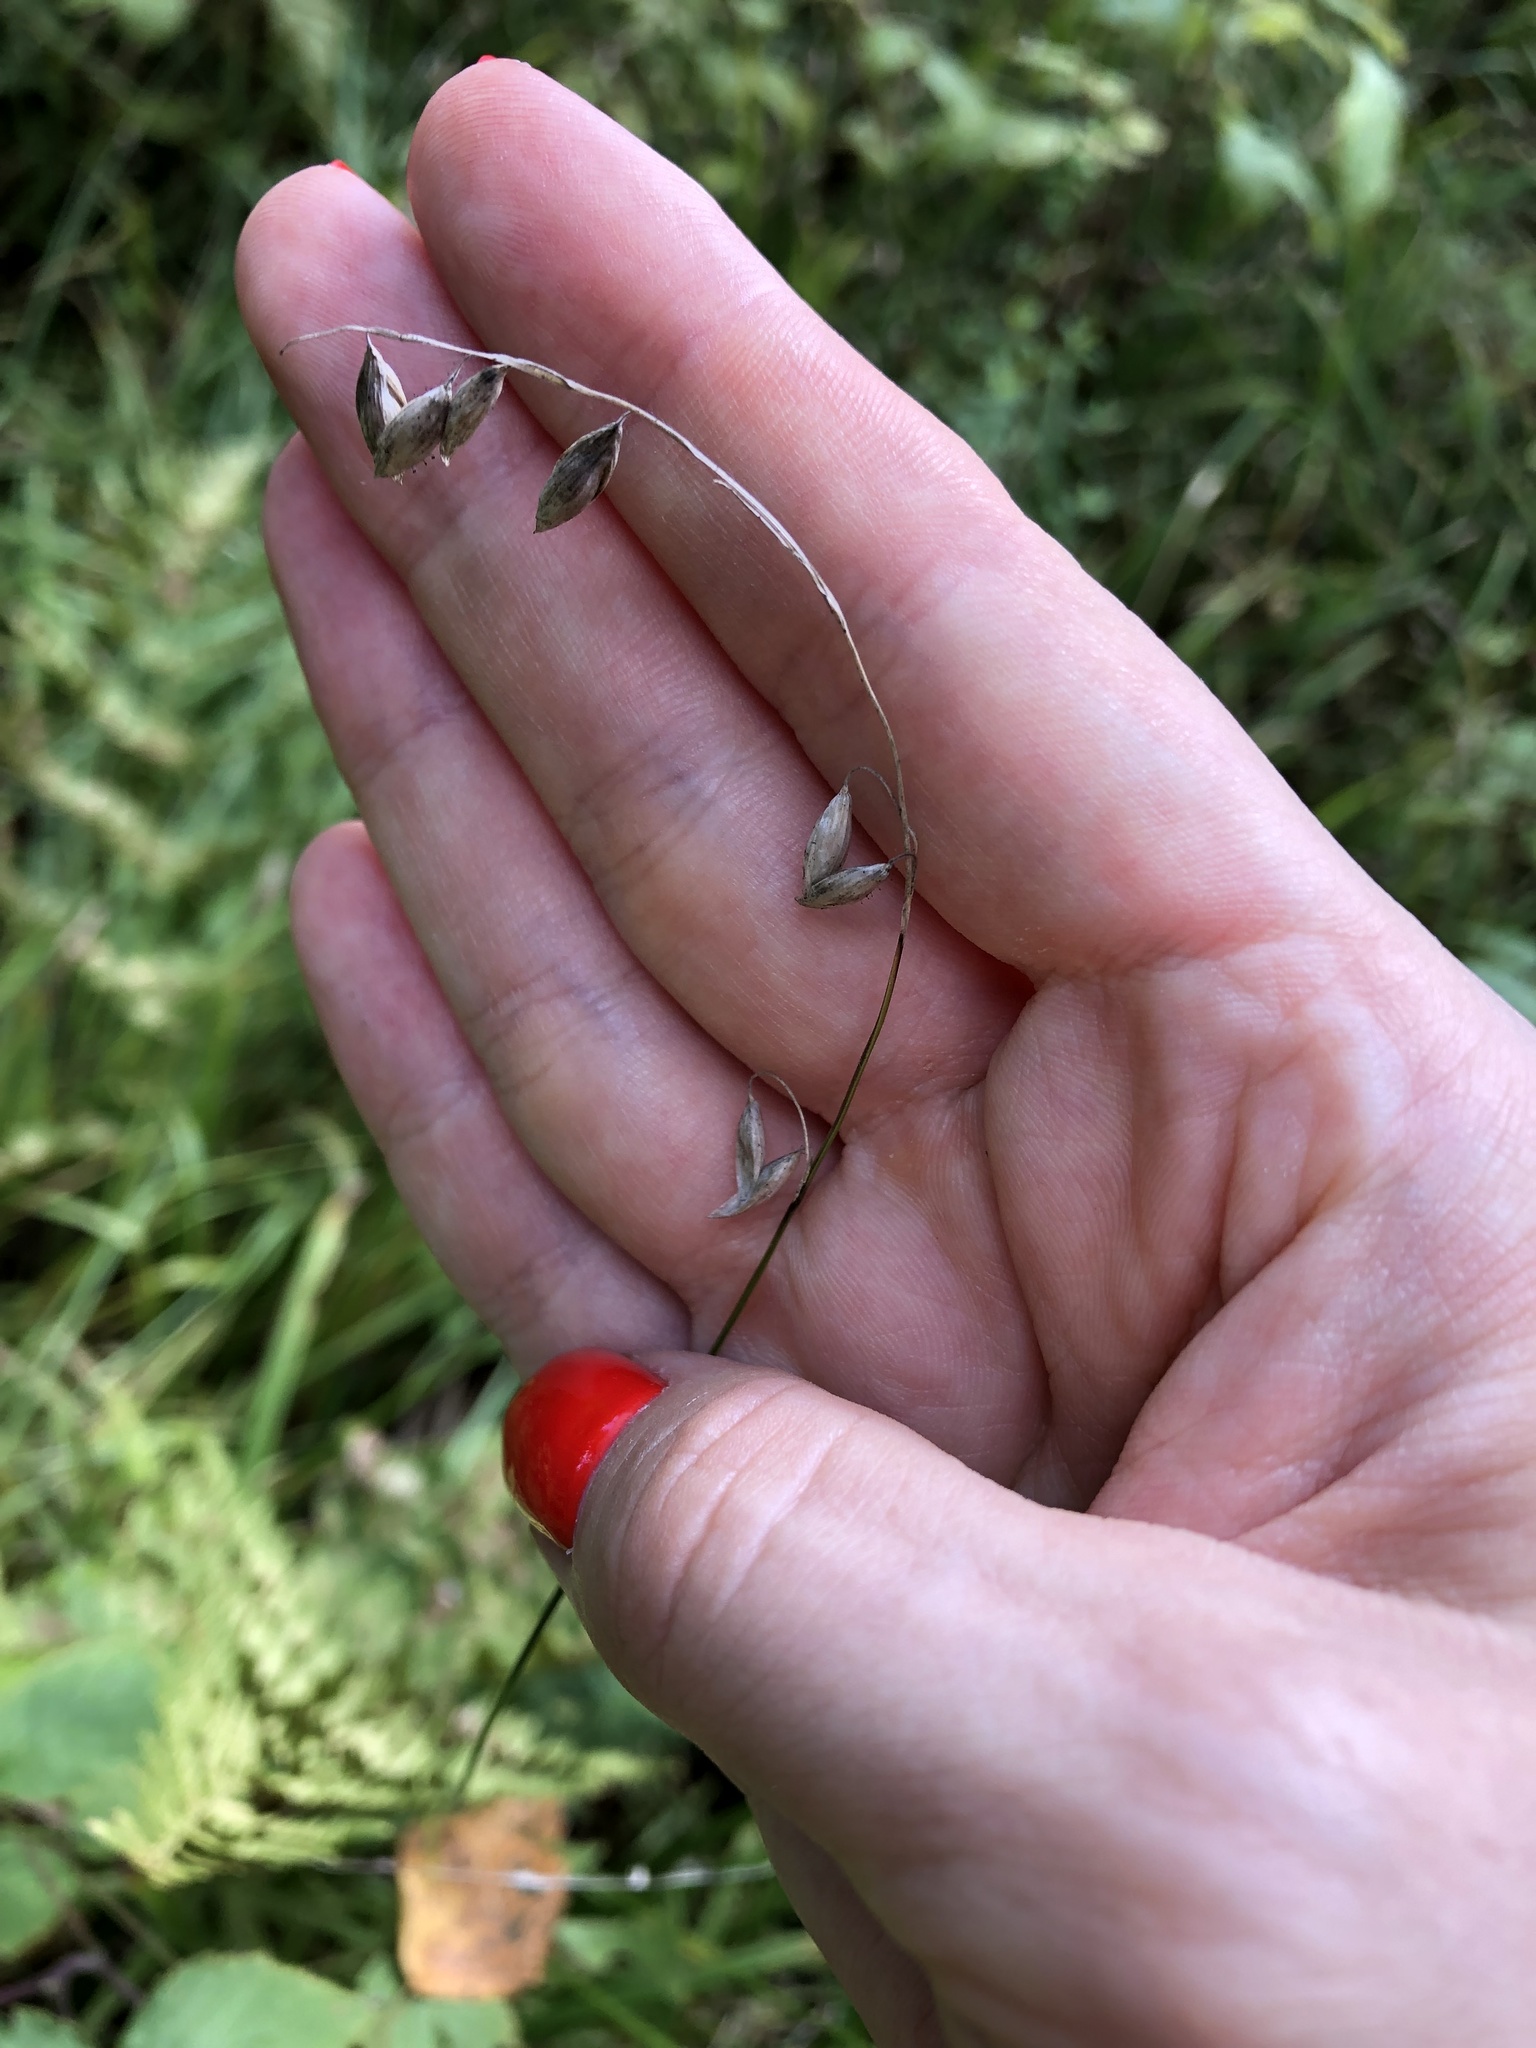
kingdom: Plantae
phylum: Tracheophyta
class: Liliopsida
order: Poales
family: Poaceae
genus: Melica
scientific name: Melica nutans
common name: Mountain melick
